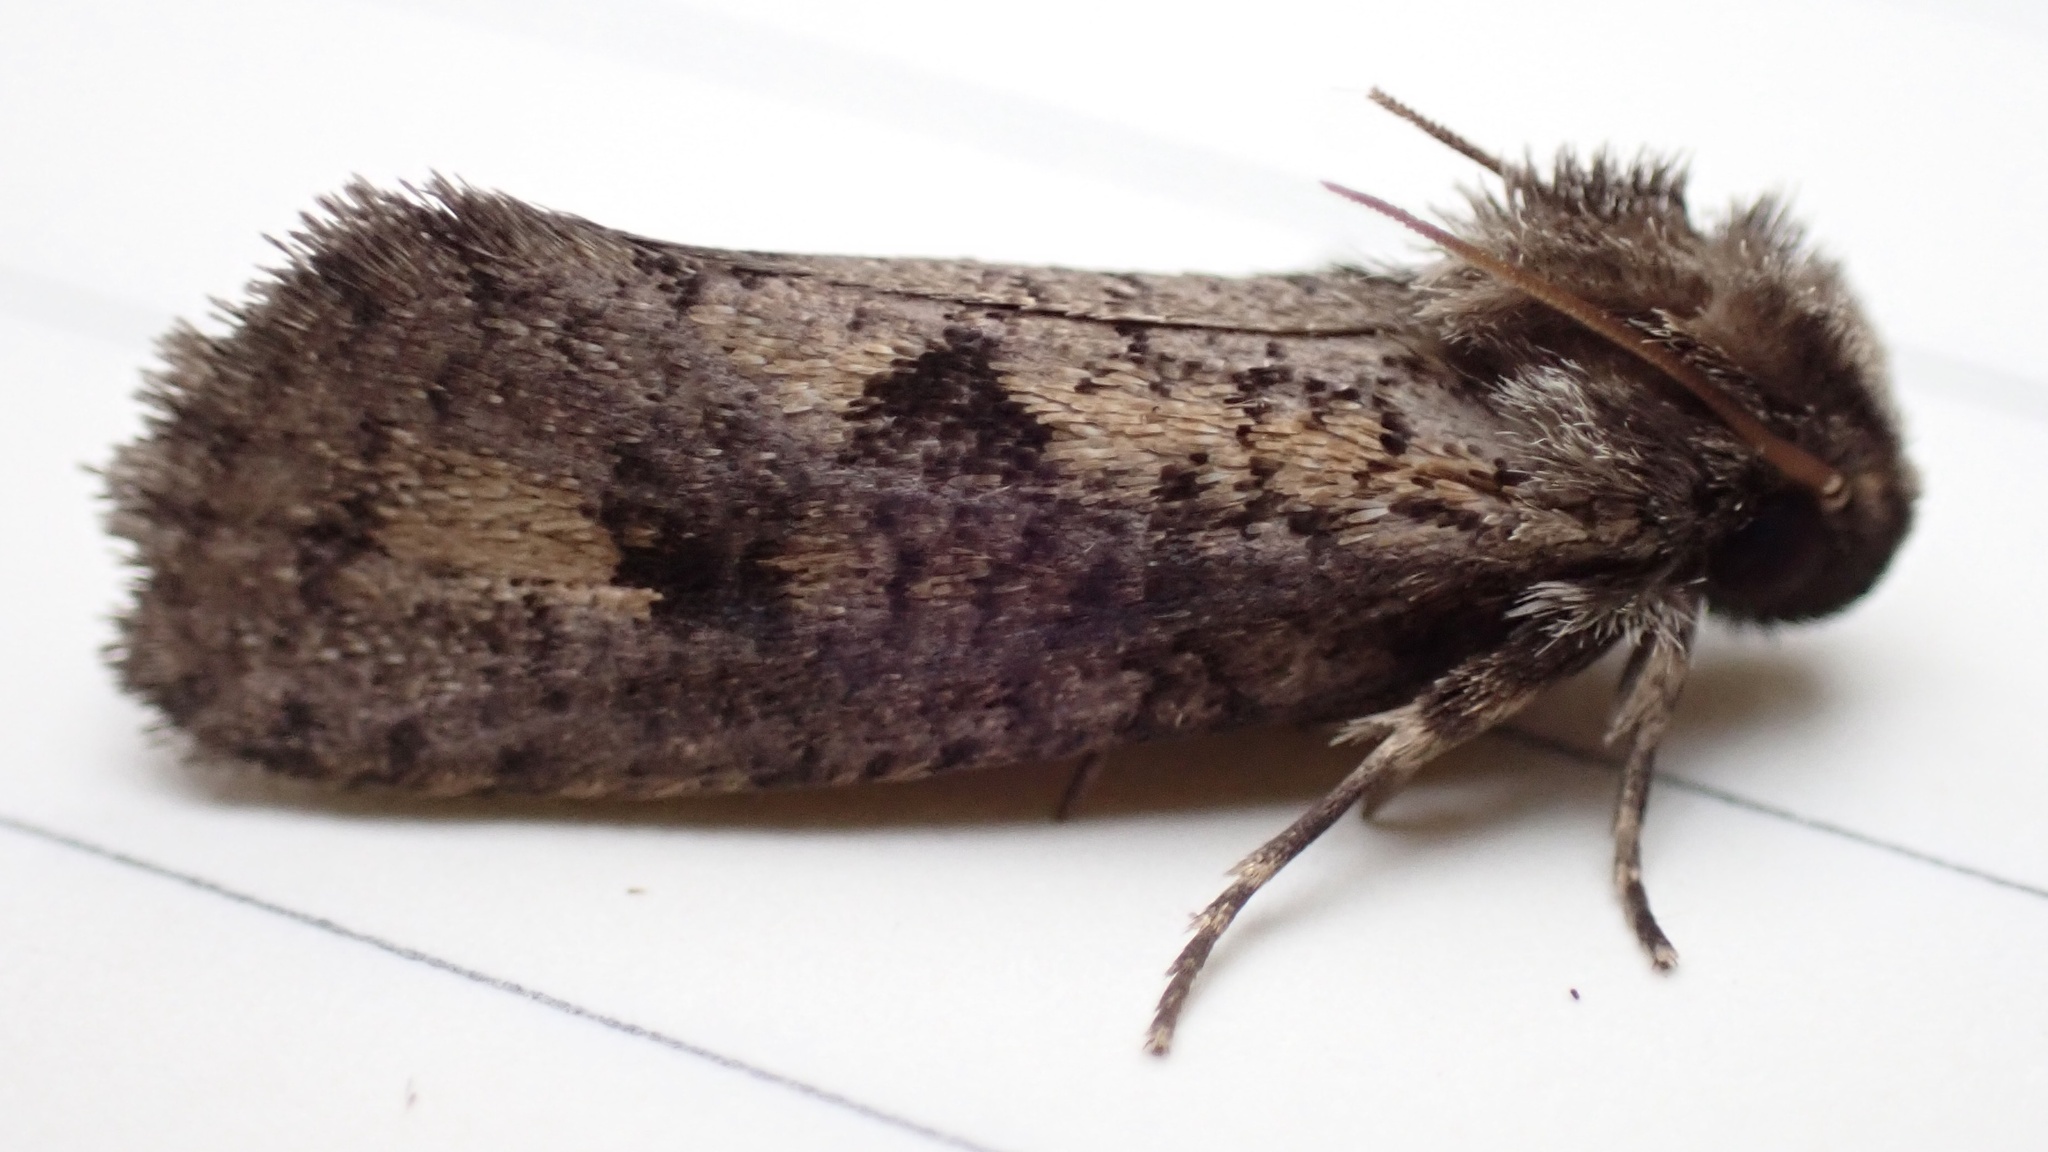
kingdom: Animalia
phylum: Arthropoda
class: Insecta
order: Lepidoptera
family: Tineidae
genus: Acrolophus
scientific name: Acrolophus popeanella
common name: Clemens' grass tubeworm moth
